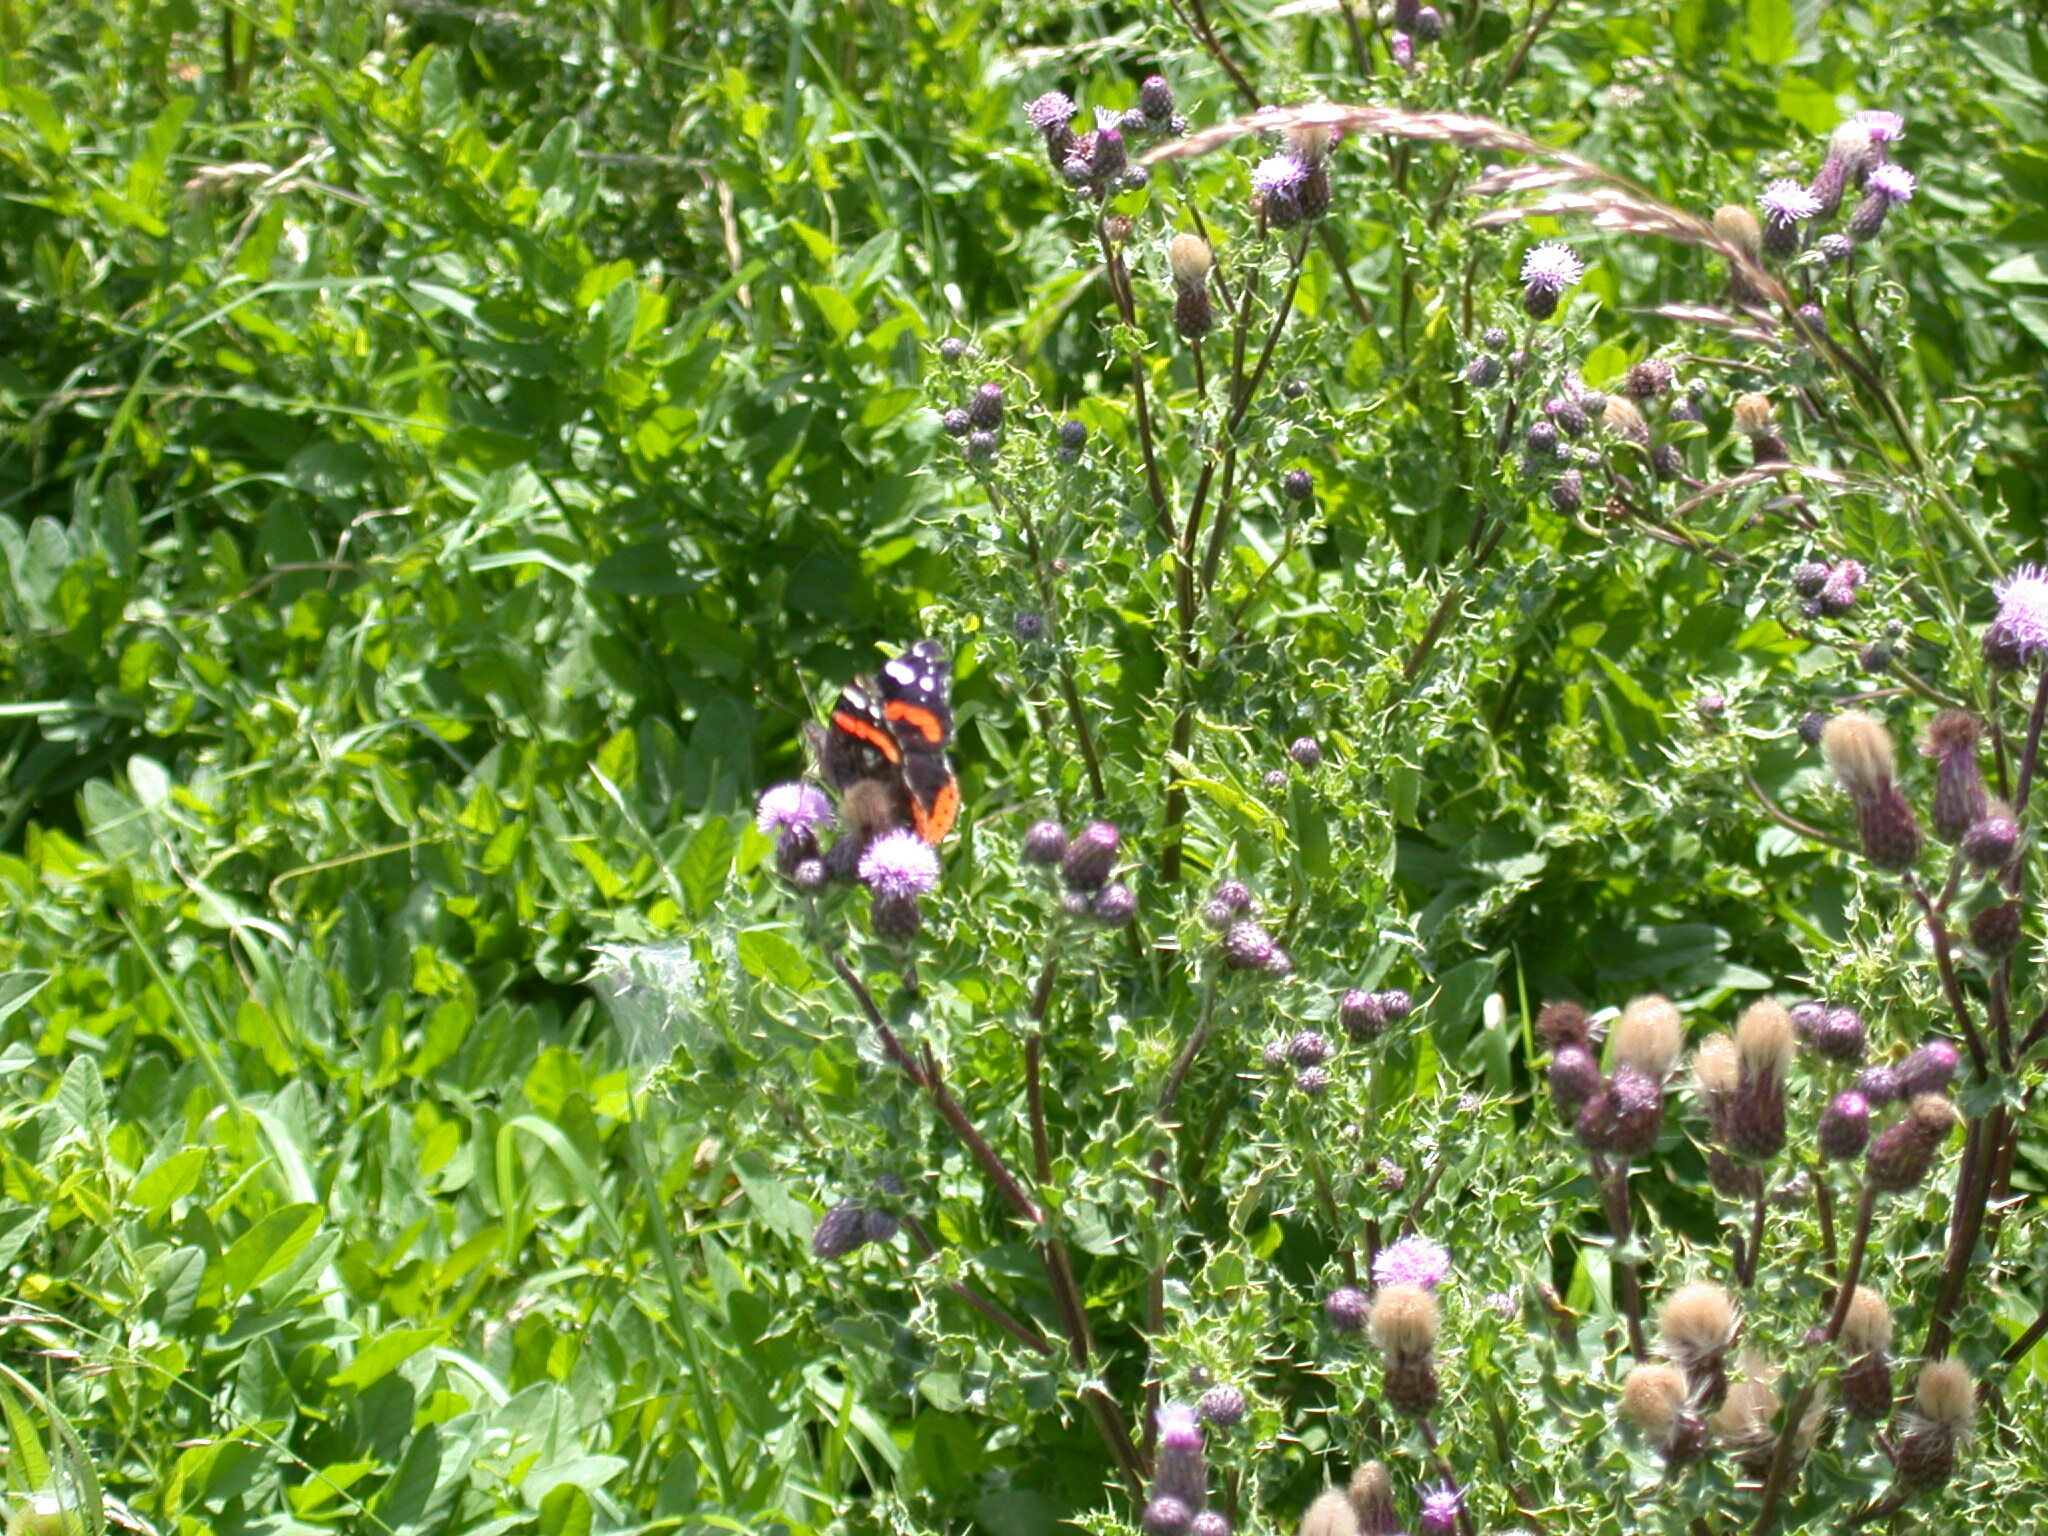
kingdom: Animalia
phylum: Arthropoda
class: Insecta
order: Lepidoptera
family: Nymphalidae
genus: Vanessa
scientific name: Vanessa atalanta
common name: Red admiral
